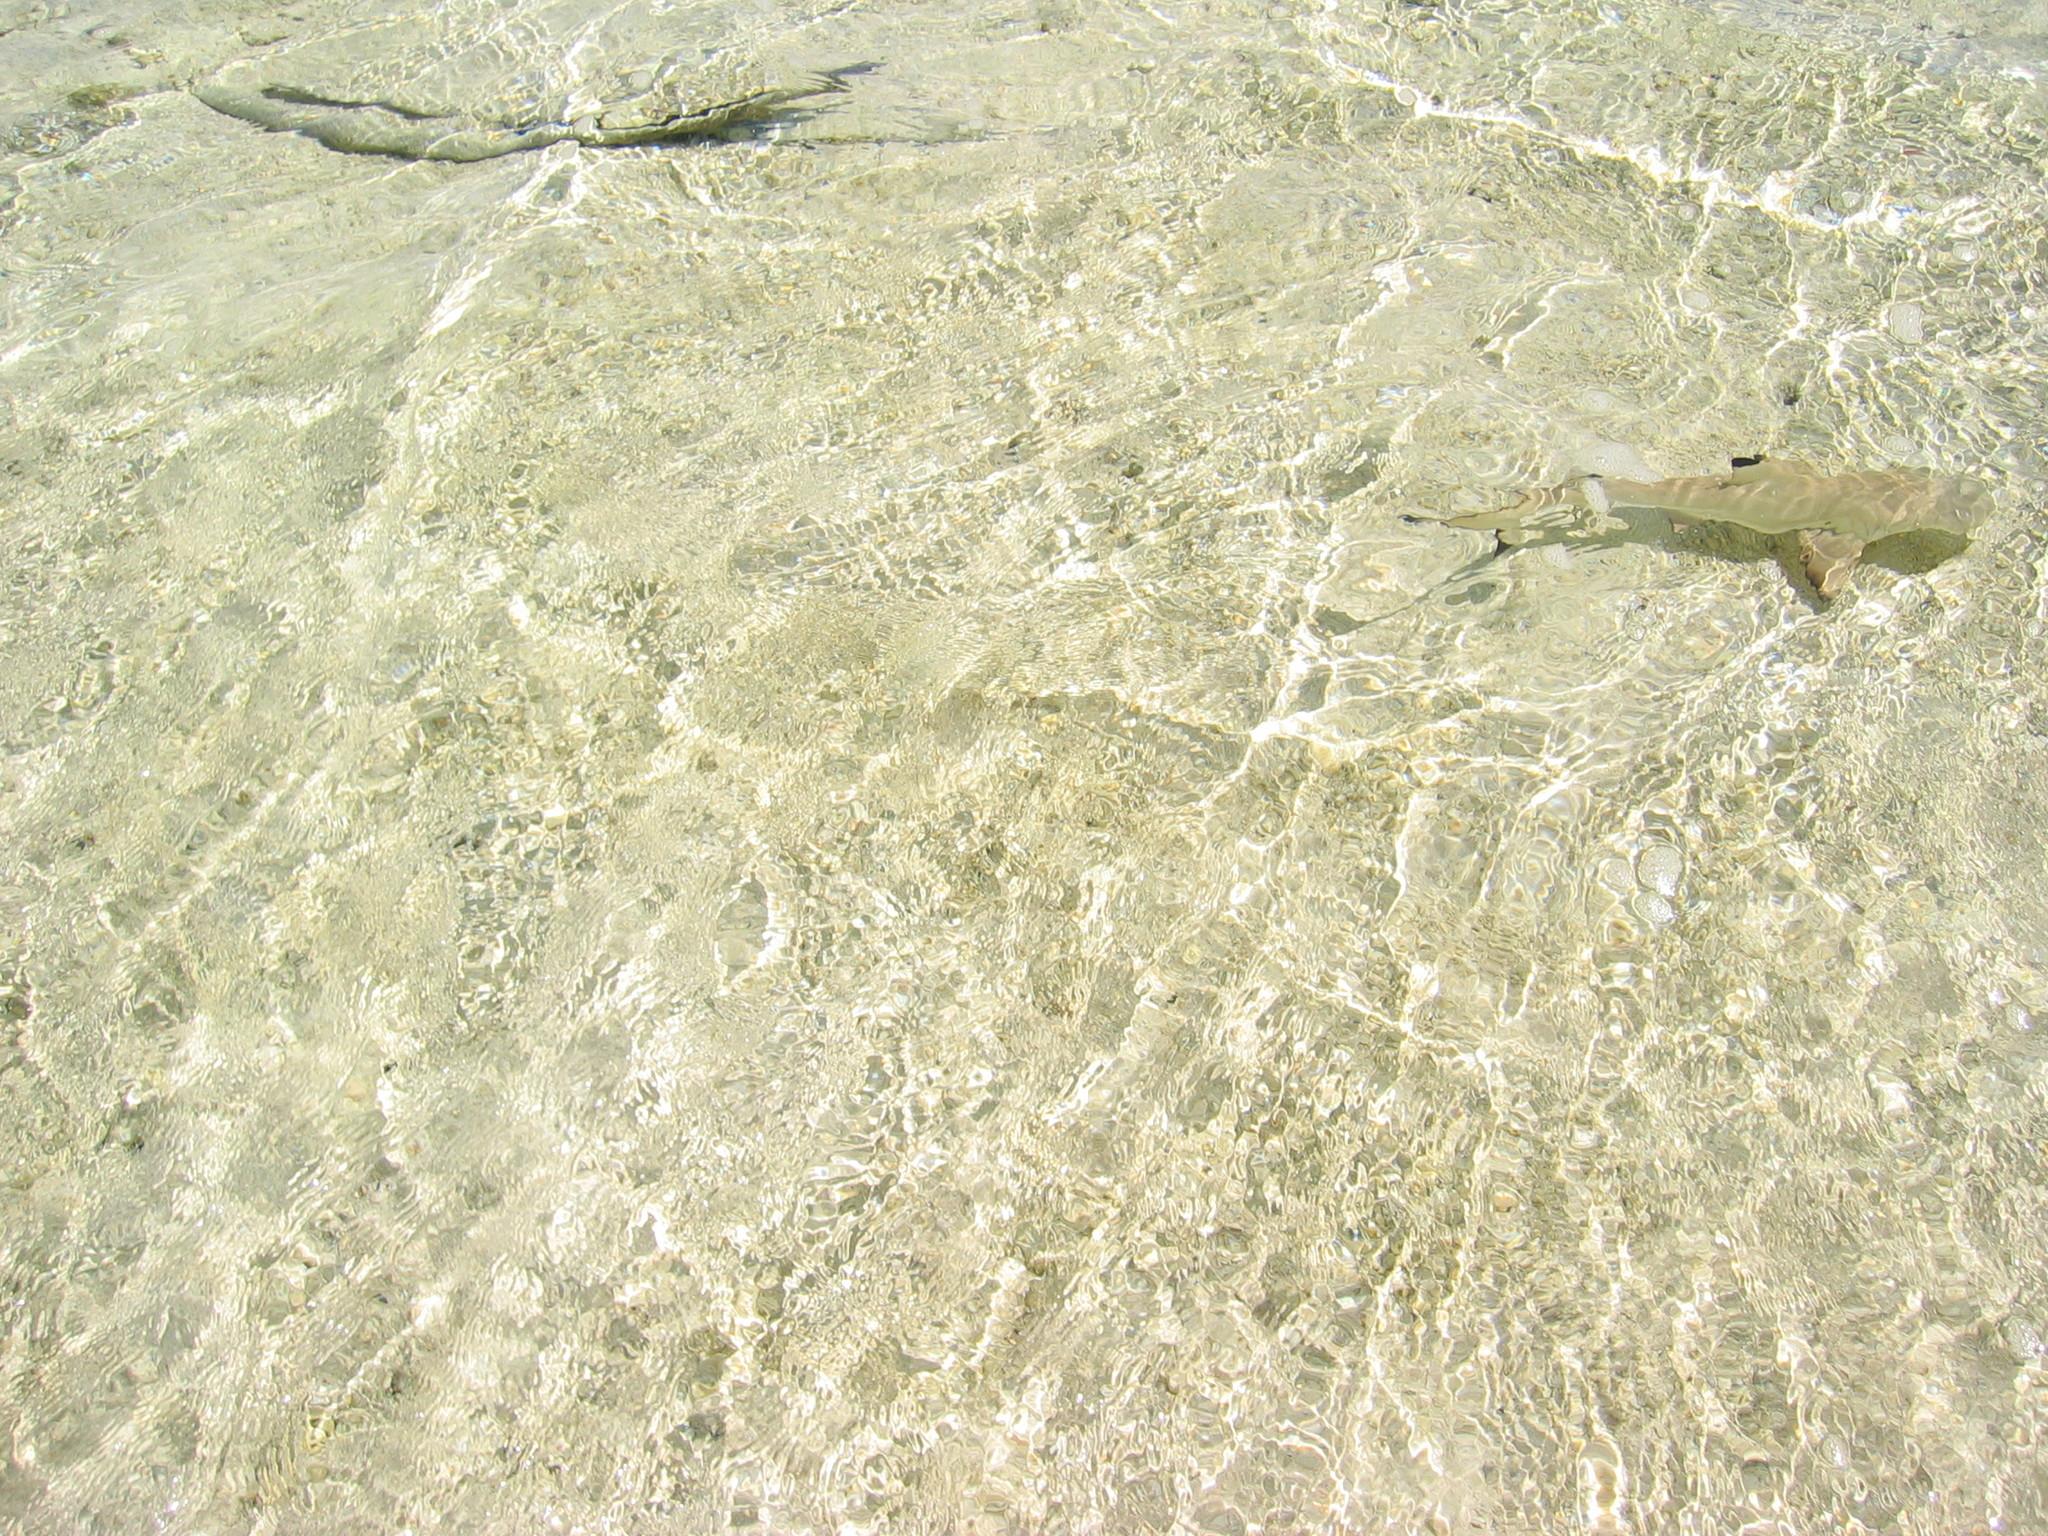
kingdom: Animalia
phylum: Chordata
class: Elasmobranchii
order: Carcharhiniformes
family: Carcharhinidae
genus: Carcharhinus
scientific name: Carcharhinus melanopterus
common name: Blacktip reef shark
